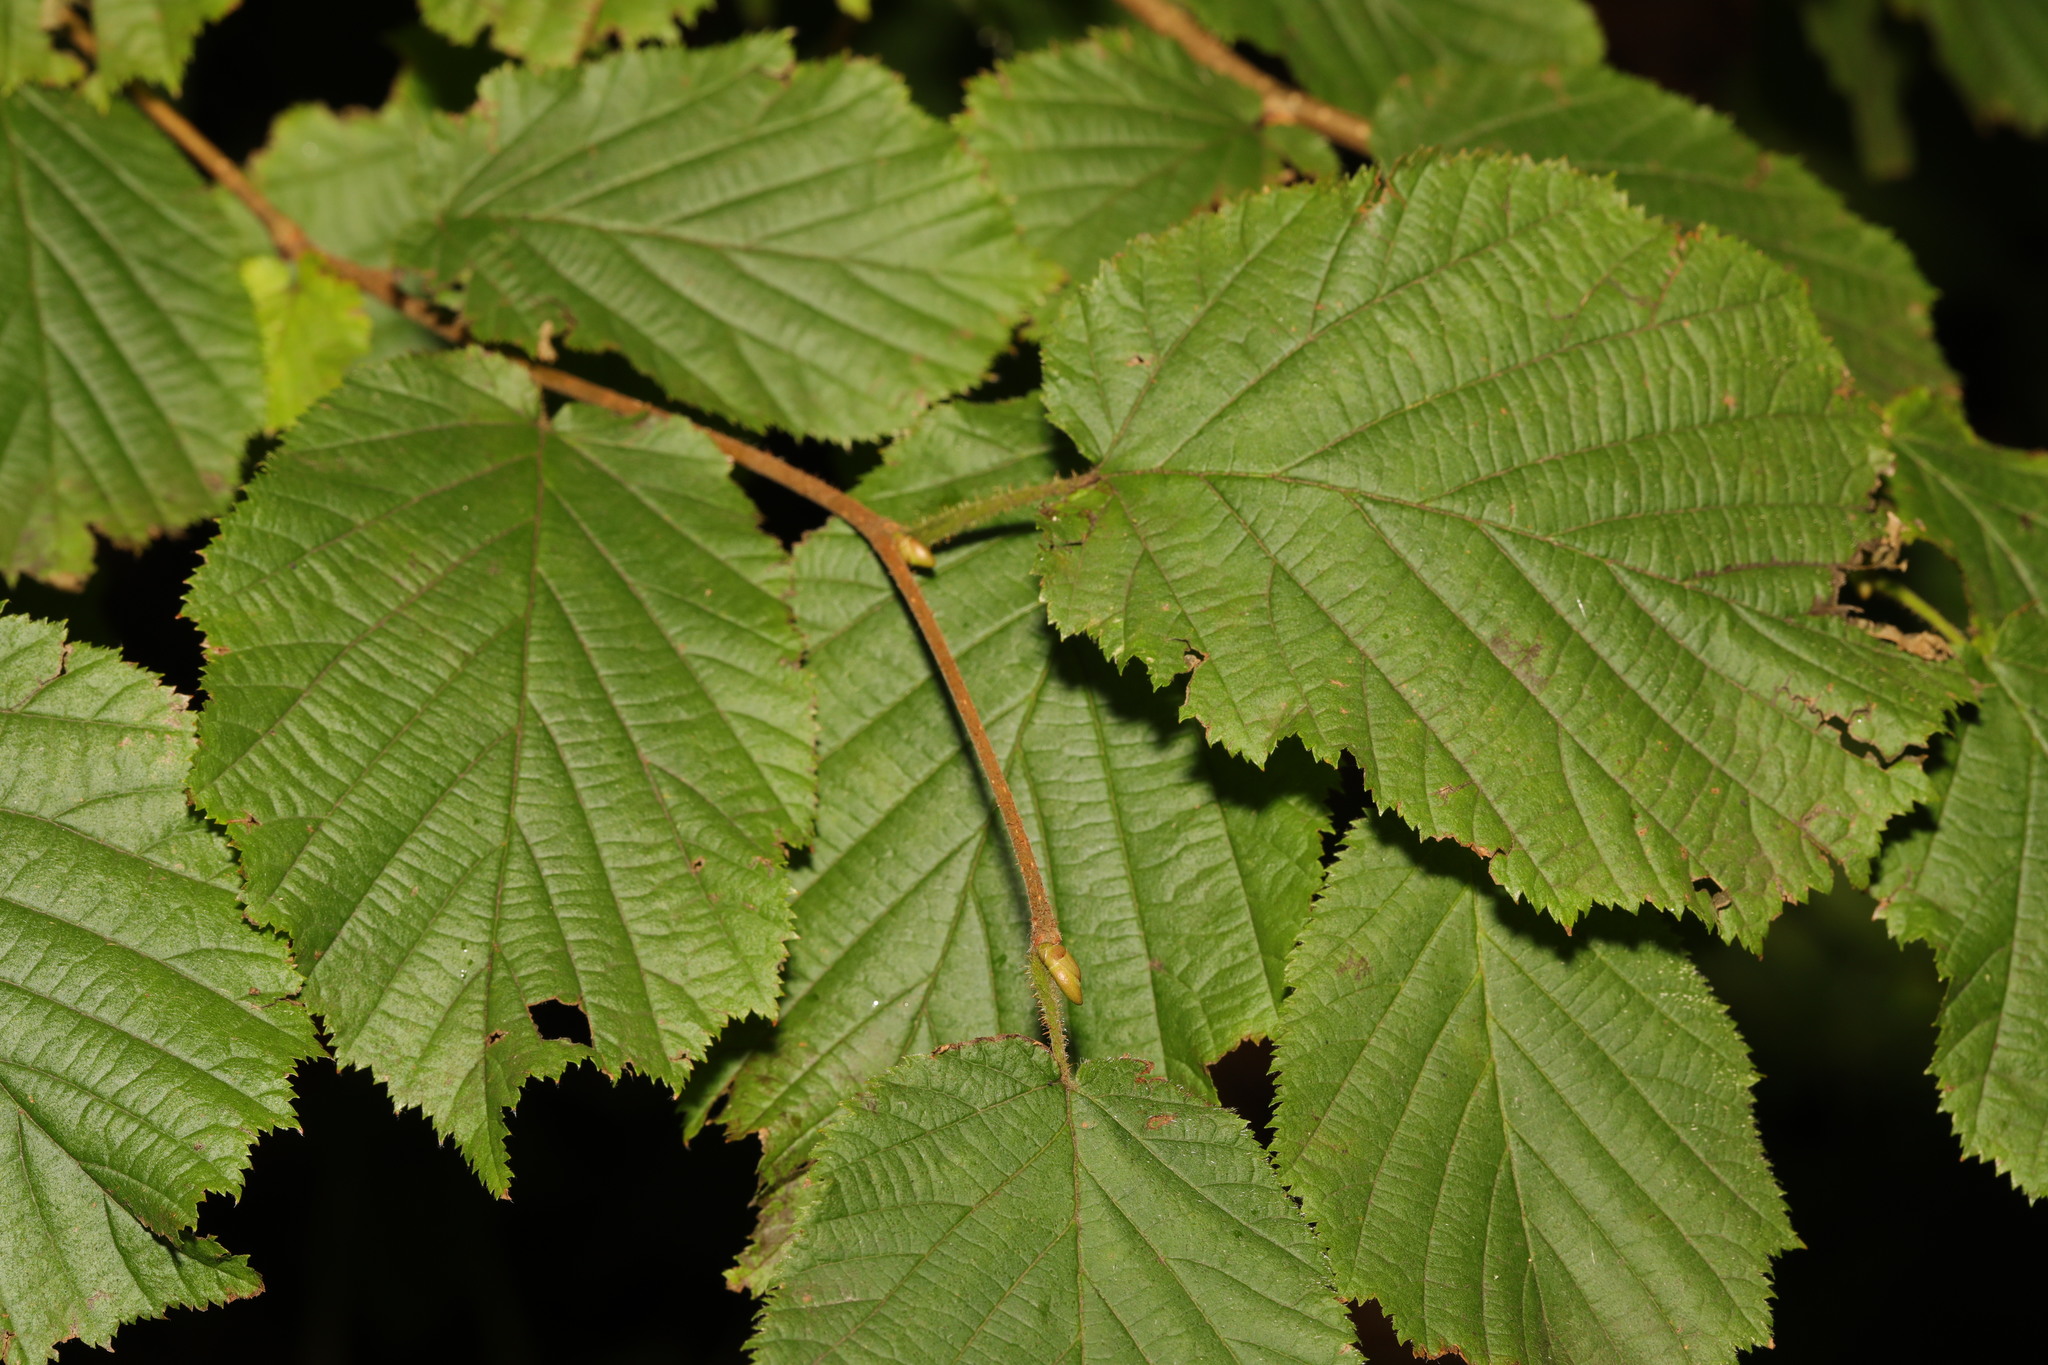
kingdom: Plantae
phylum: Tracheophyta
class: Magnoliopsida
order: Fagales
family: Betulaceae
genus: Corylus
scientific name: Corylus avellana
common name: European hazel
